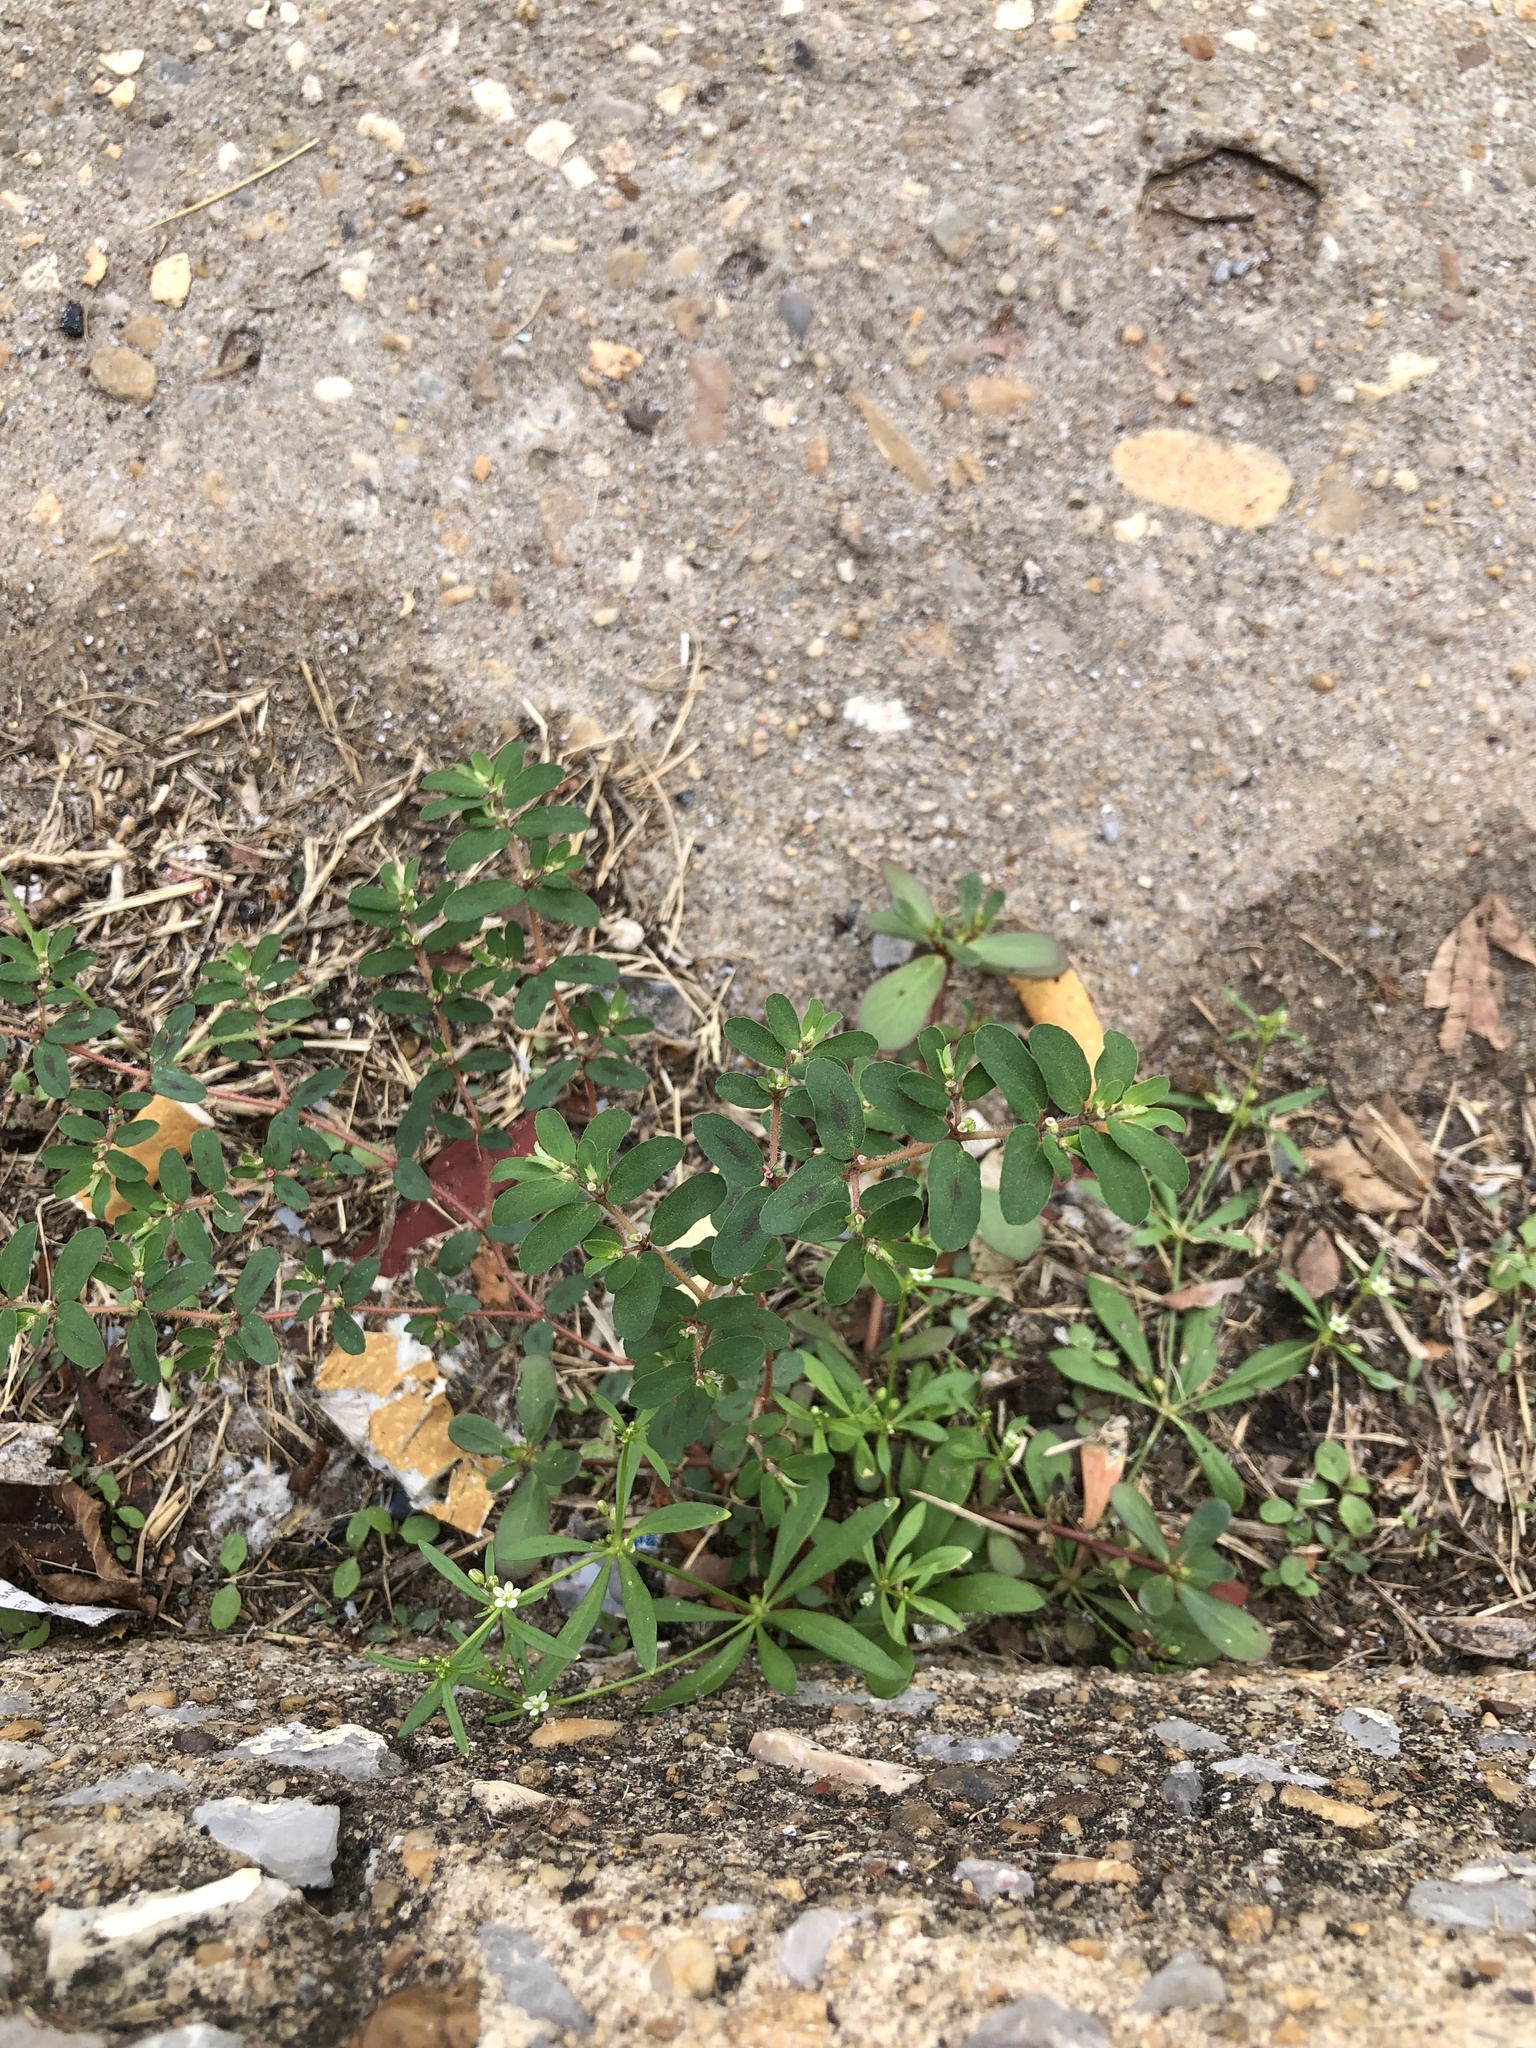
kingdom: Plantae
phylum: Tracheophyta
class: Magnoliopsida
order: Malpighiales
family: Euphorbiaceae
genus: Euphorbia
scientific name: Euphorbia maculata
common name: Spotted spurge
